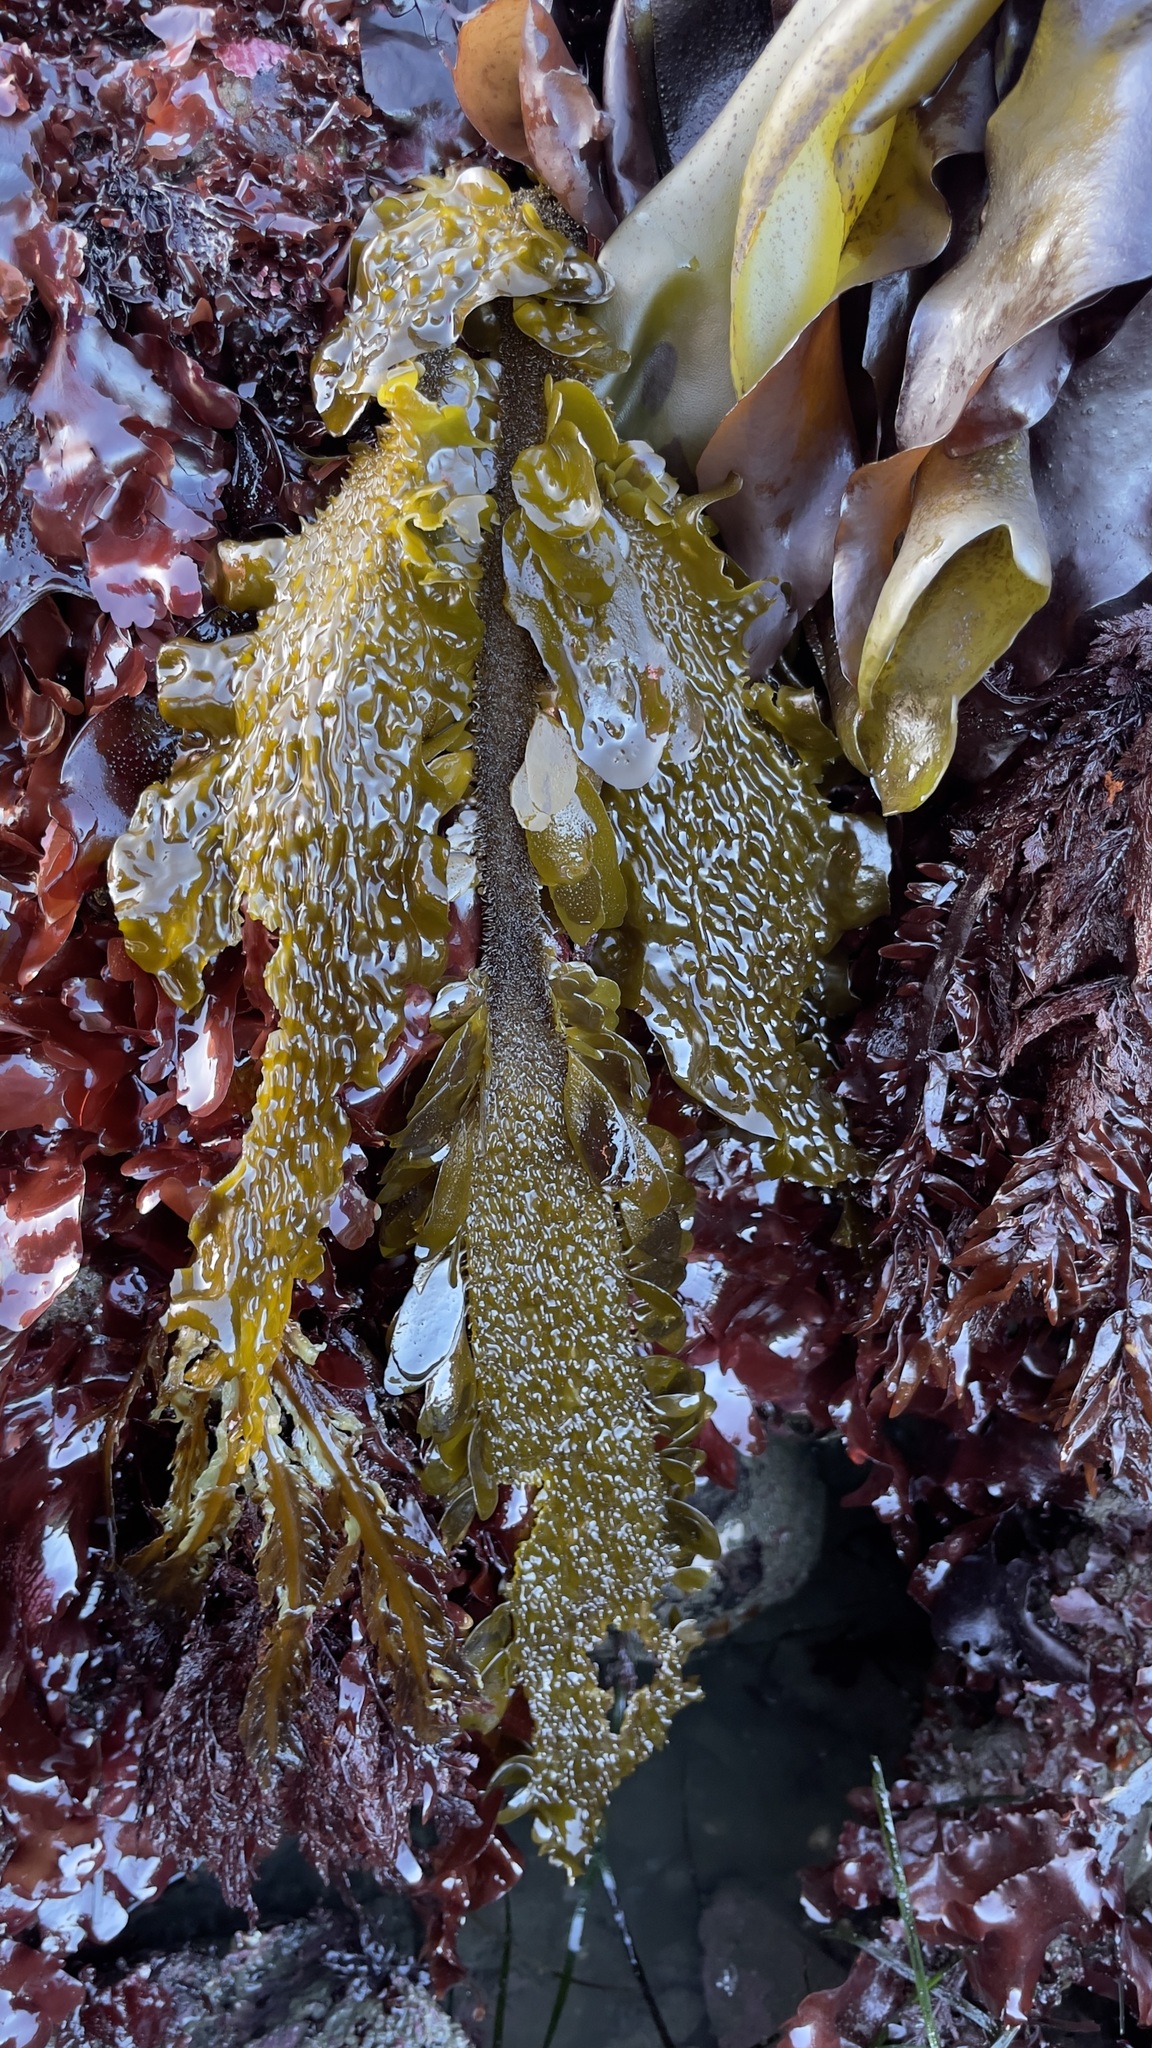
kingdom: Chromista
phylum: Ochrophyta
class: Phaeophyceae
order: Laminariales
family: Lessoniaceae
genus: Egregia
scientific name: Egregia menziesii
